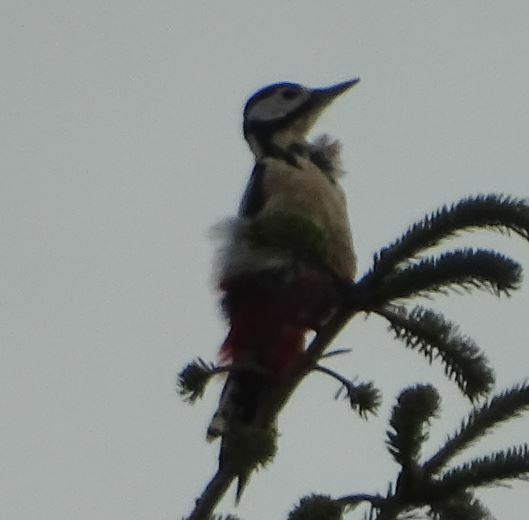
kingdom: Animalia
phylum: Chordata
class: Aves
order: Piciformes
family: Picidae
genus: Dendrocopos
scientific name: Dendrocopos major
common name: Great spotted woodpecker
